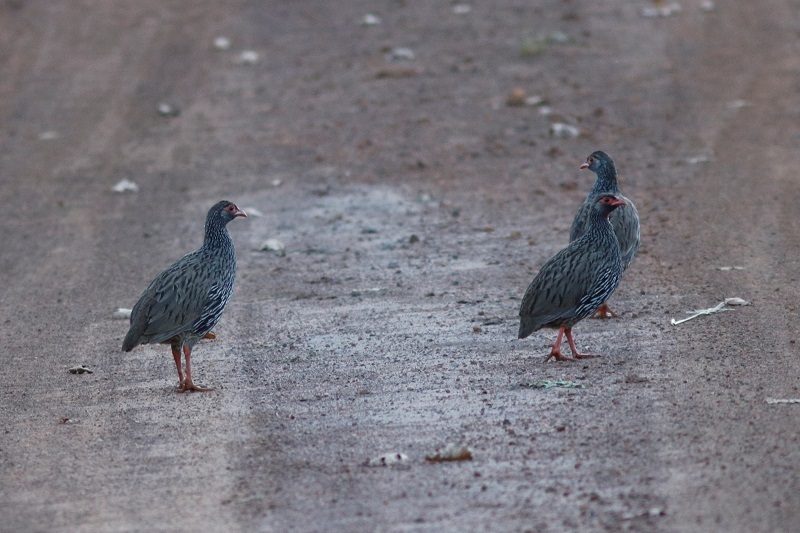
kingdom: Animalia
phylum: Chordata
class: Aves
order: Galliformes
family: Phasianidae
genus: Pternistis
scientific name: Pternistis afer
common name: Red-necked spurfowl
